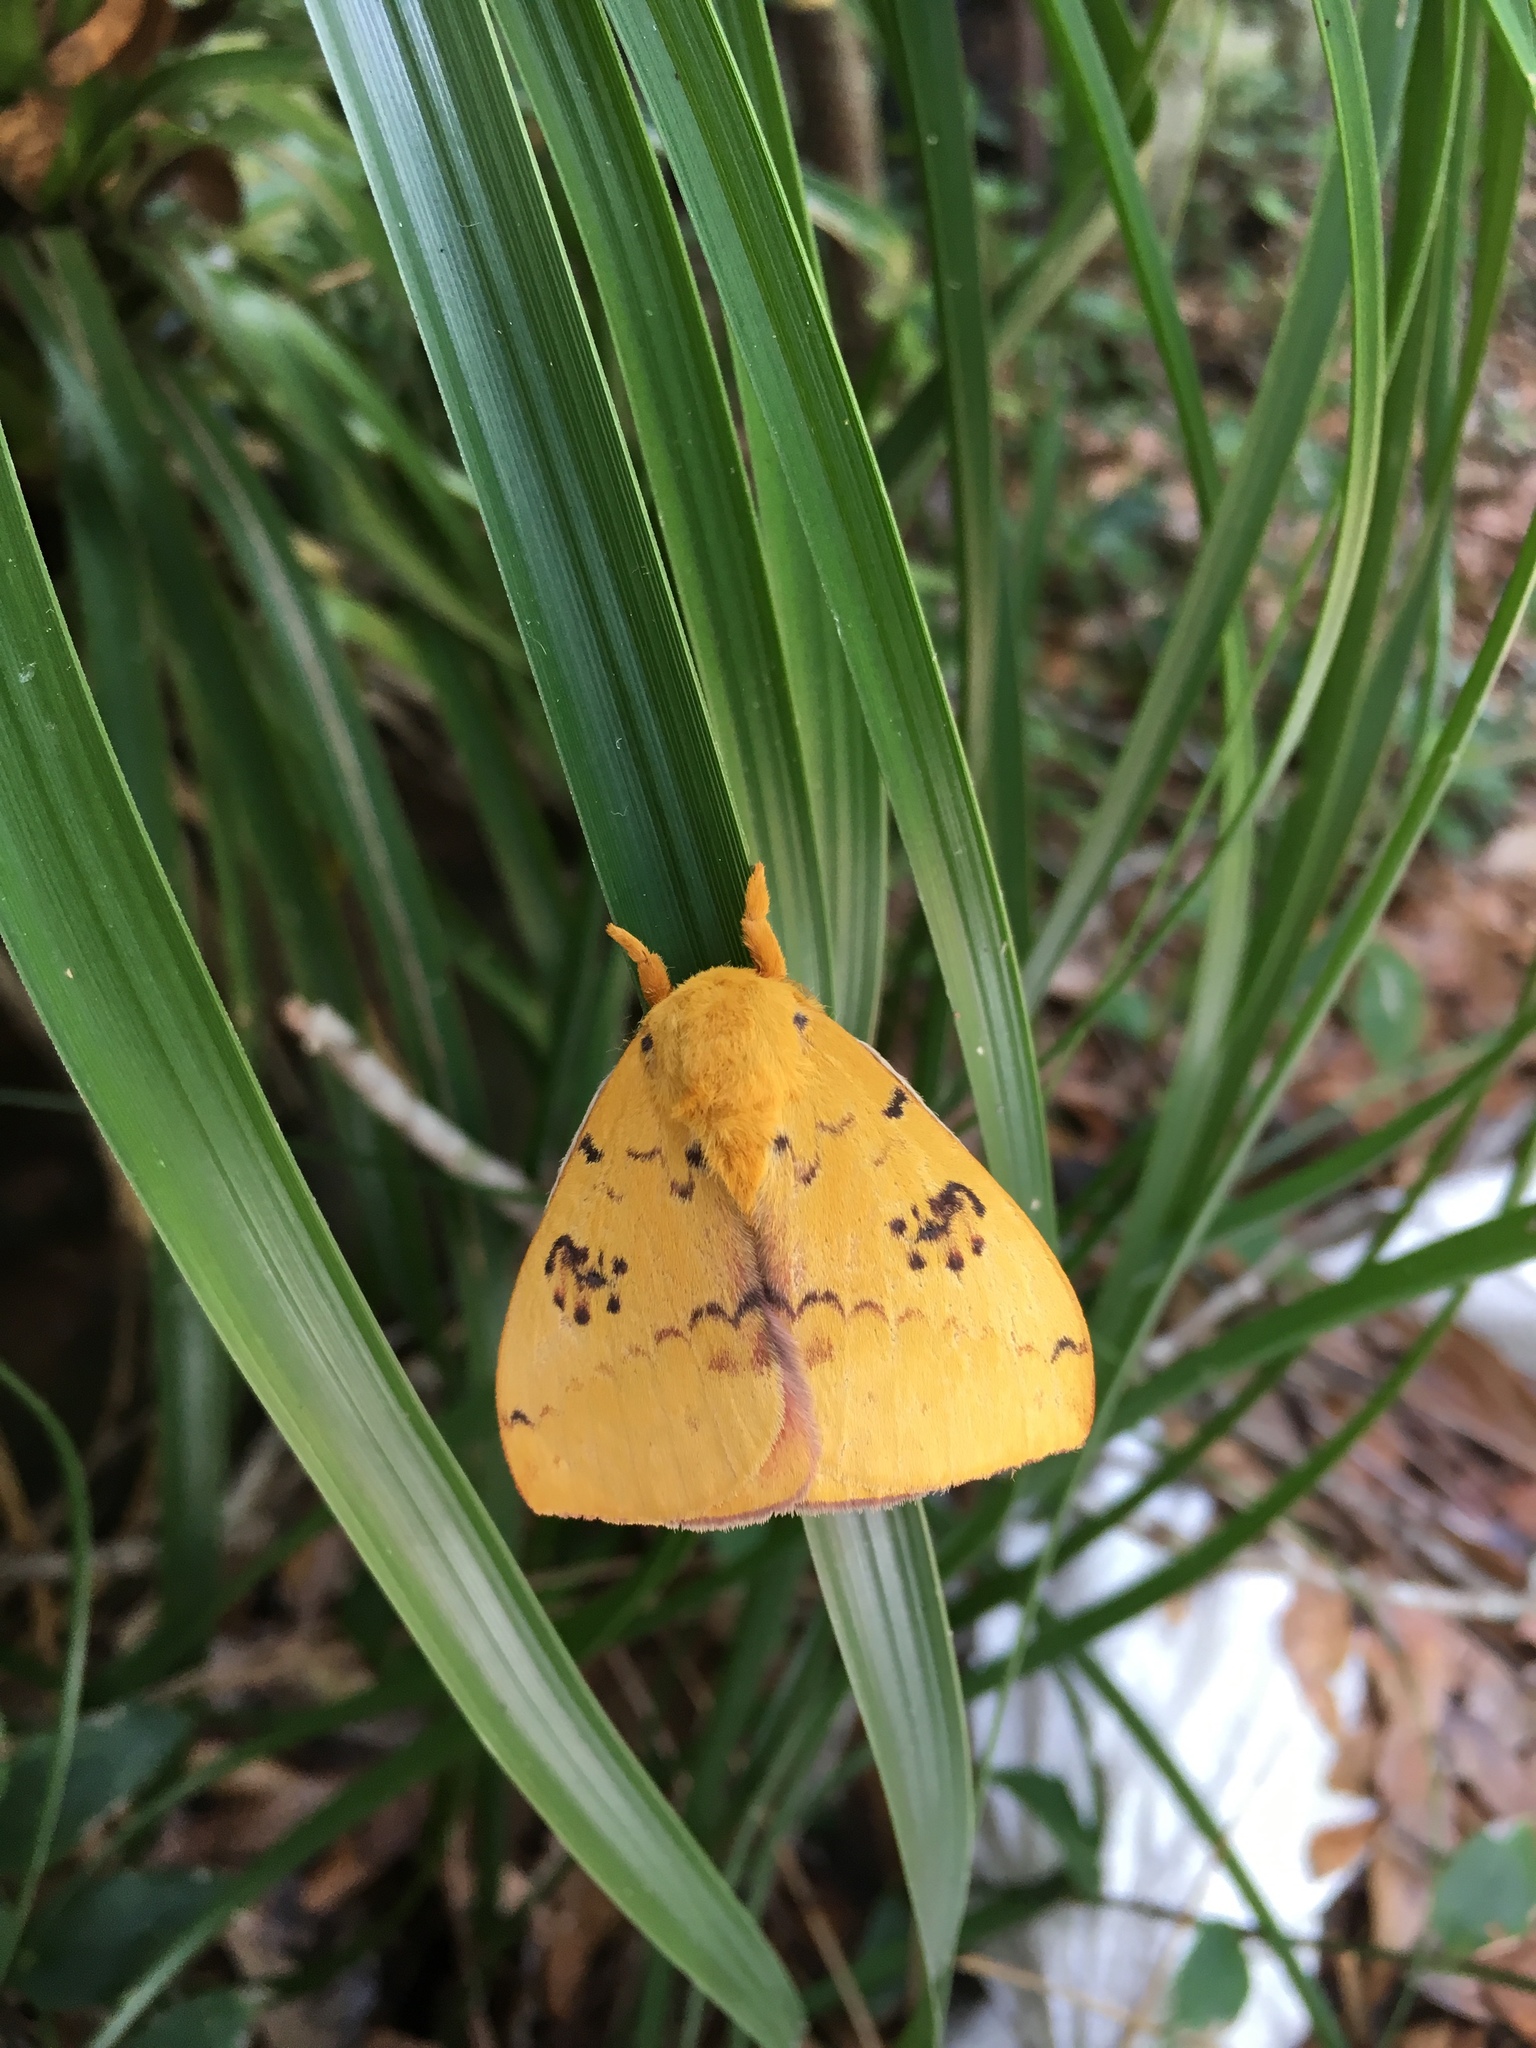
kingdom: Animalia
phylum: Arthropoda
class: Insecta
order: Lepidoptera
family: Saturniidae
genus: Automeris
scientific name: Automeris io
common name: Io moth
